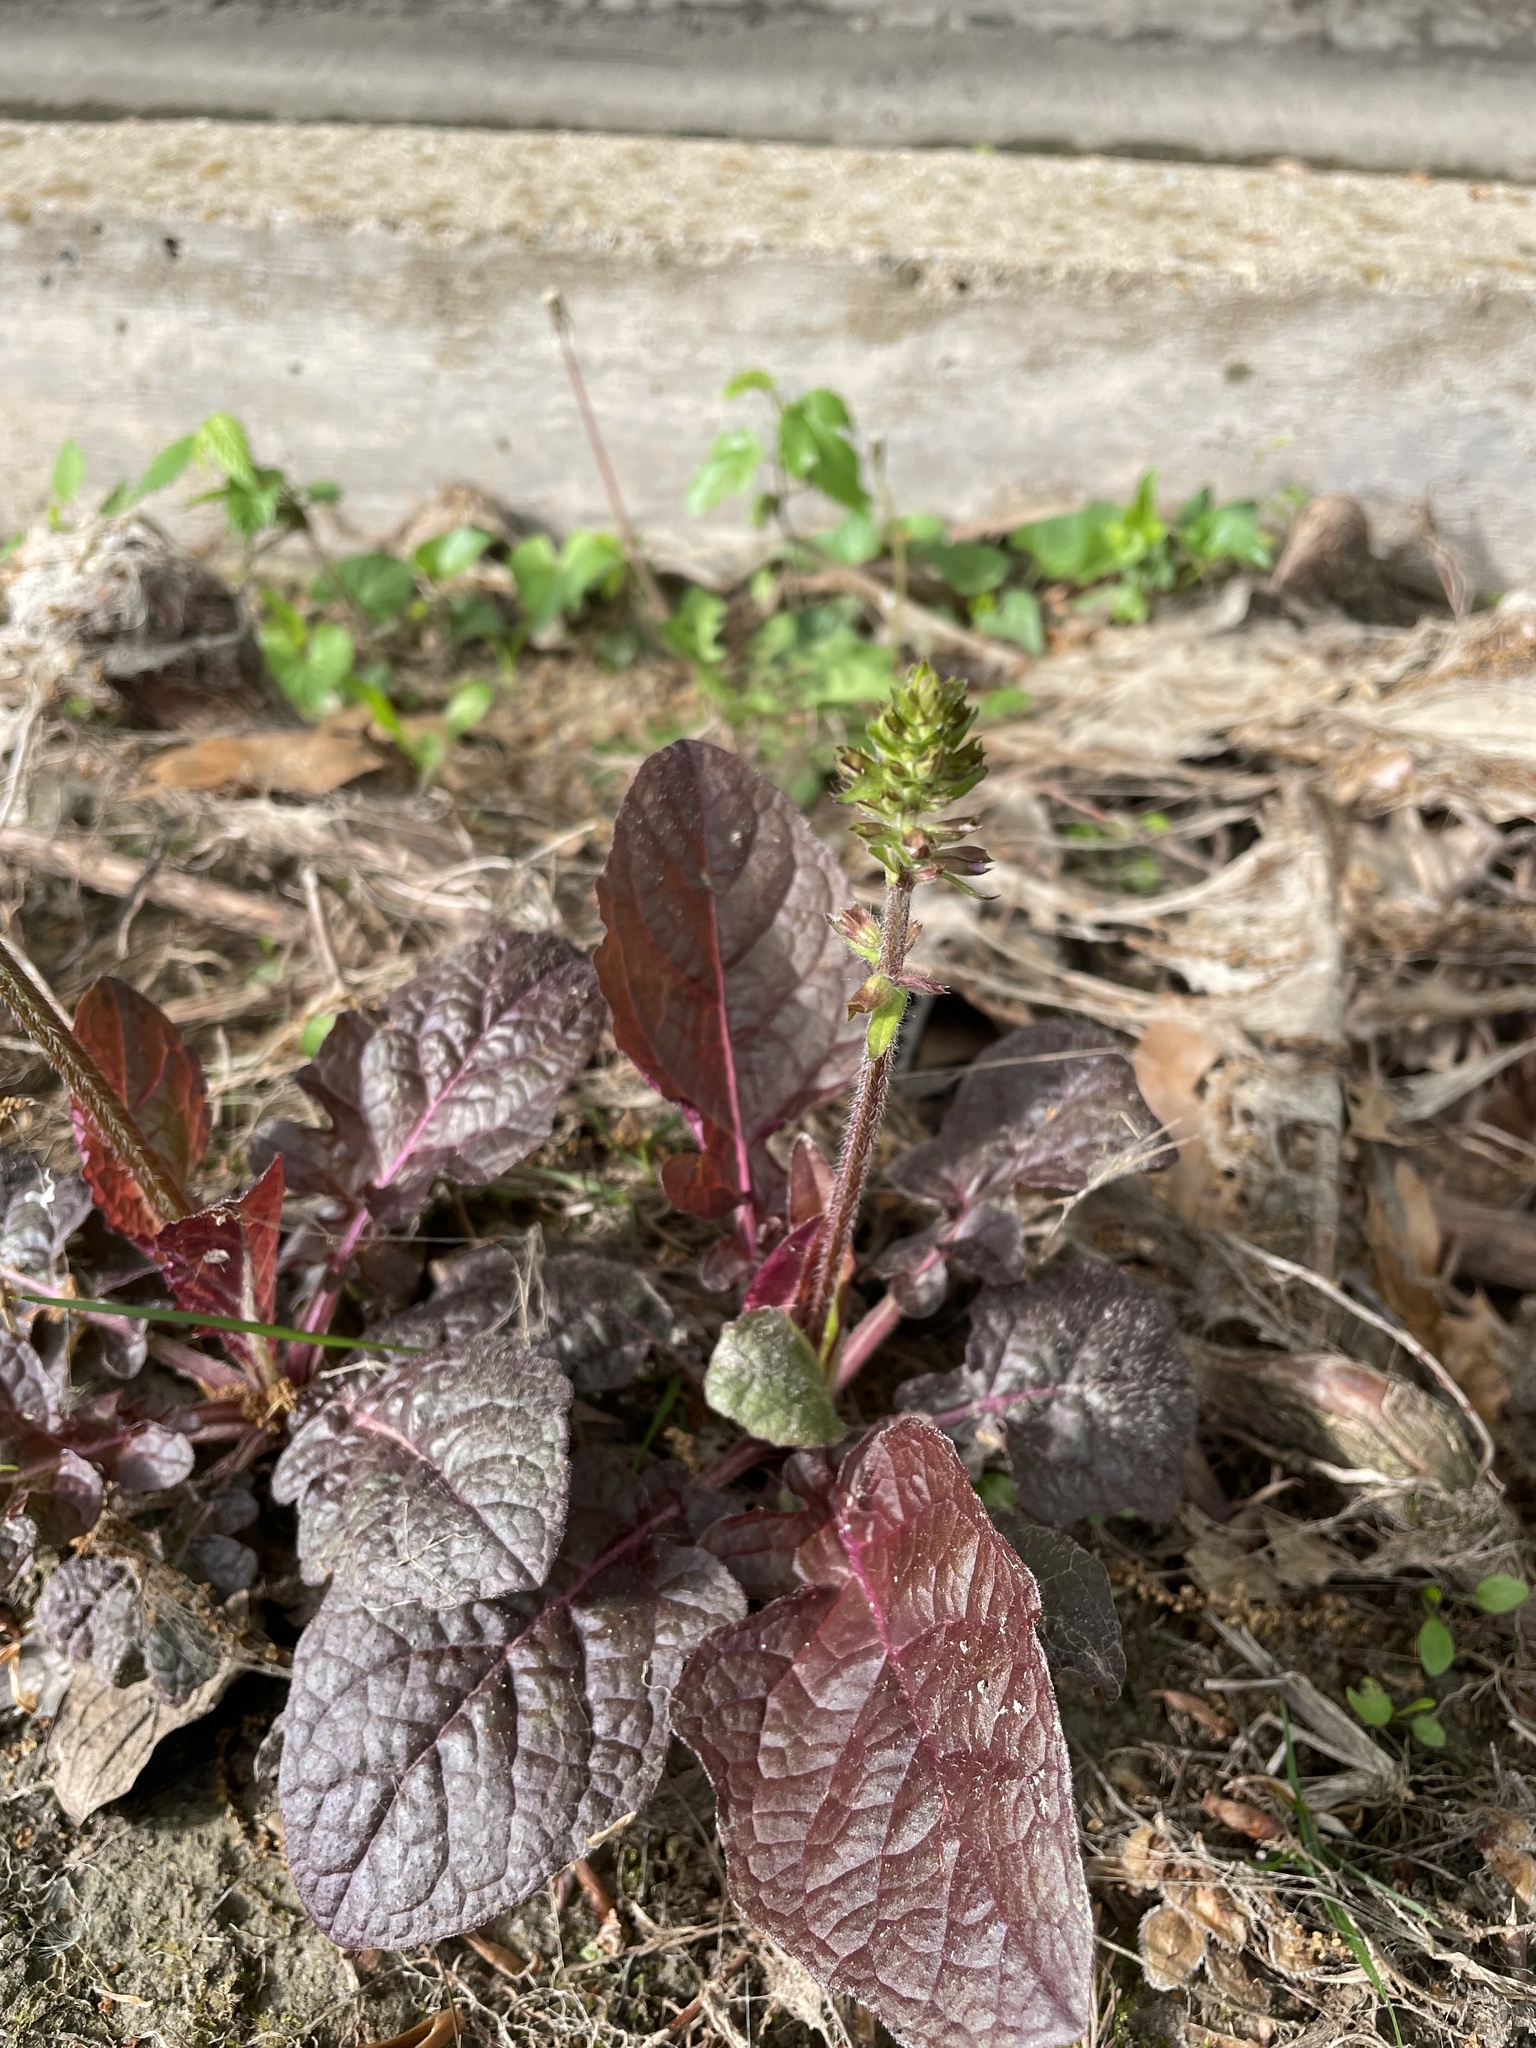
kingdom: Plantae
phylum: Tracheophyta
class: Magnoliopsida
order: Lamiales
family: Lamiaceae
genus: Salvia
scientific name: Salvia lyrata
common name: Cancerweed
